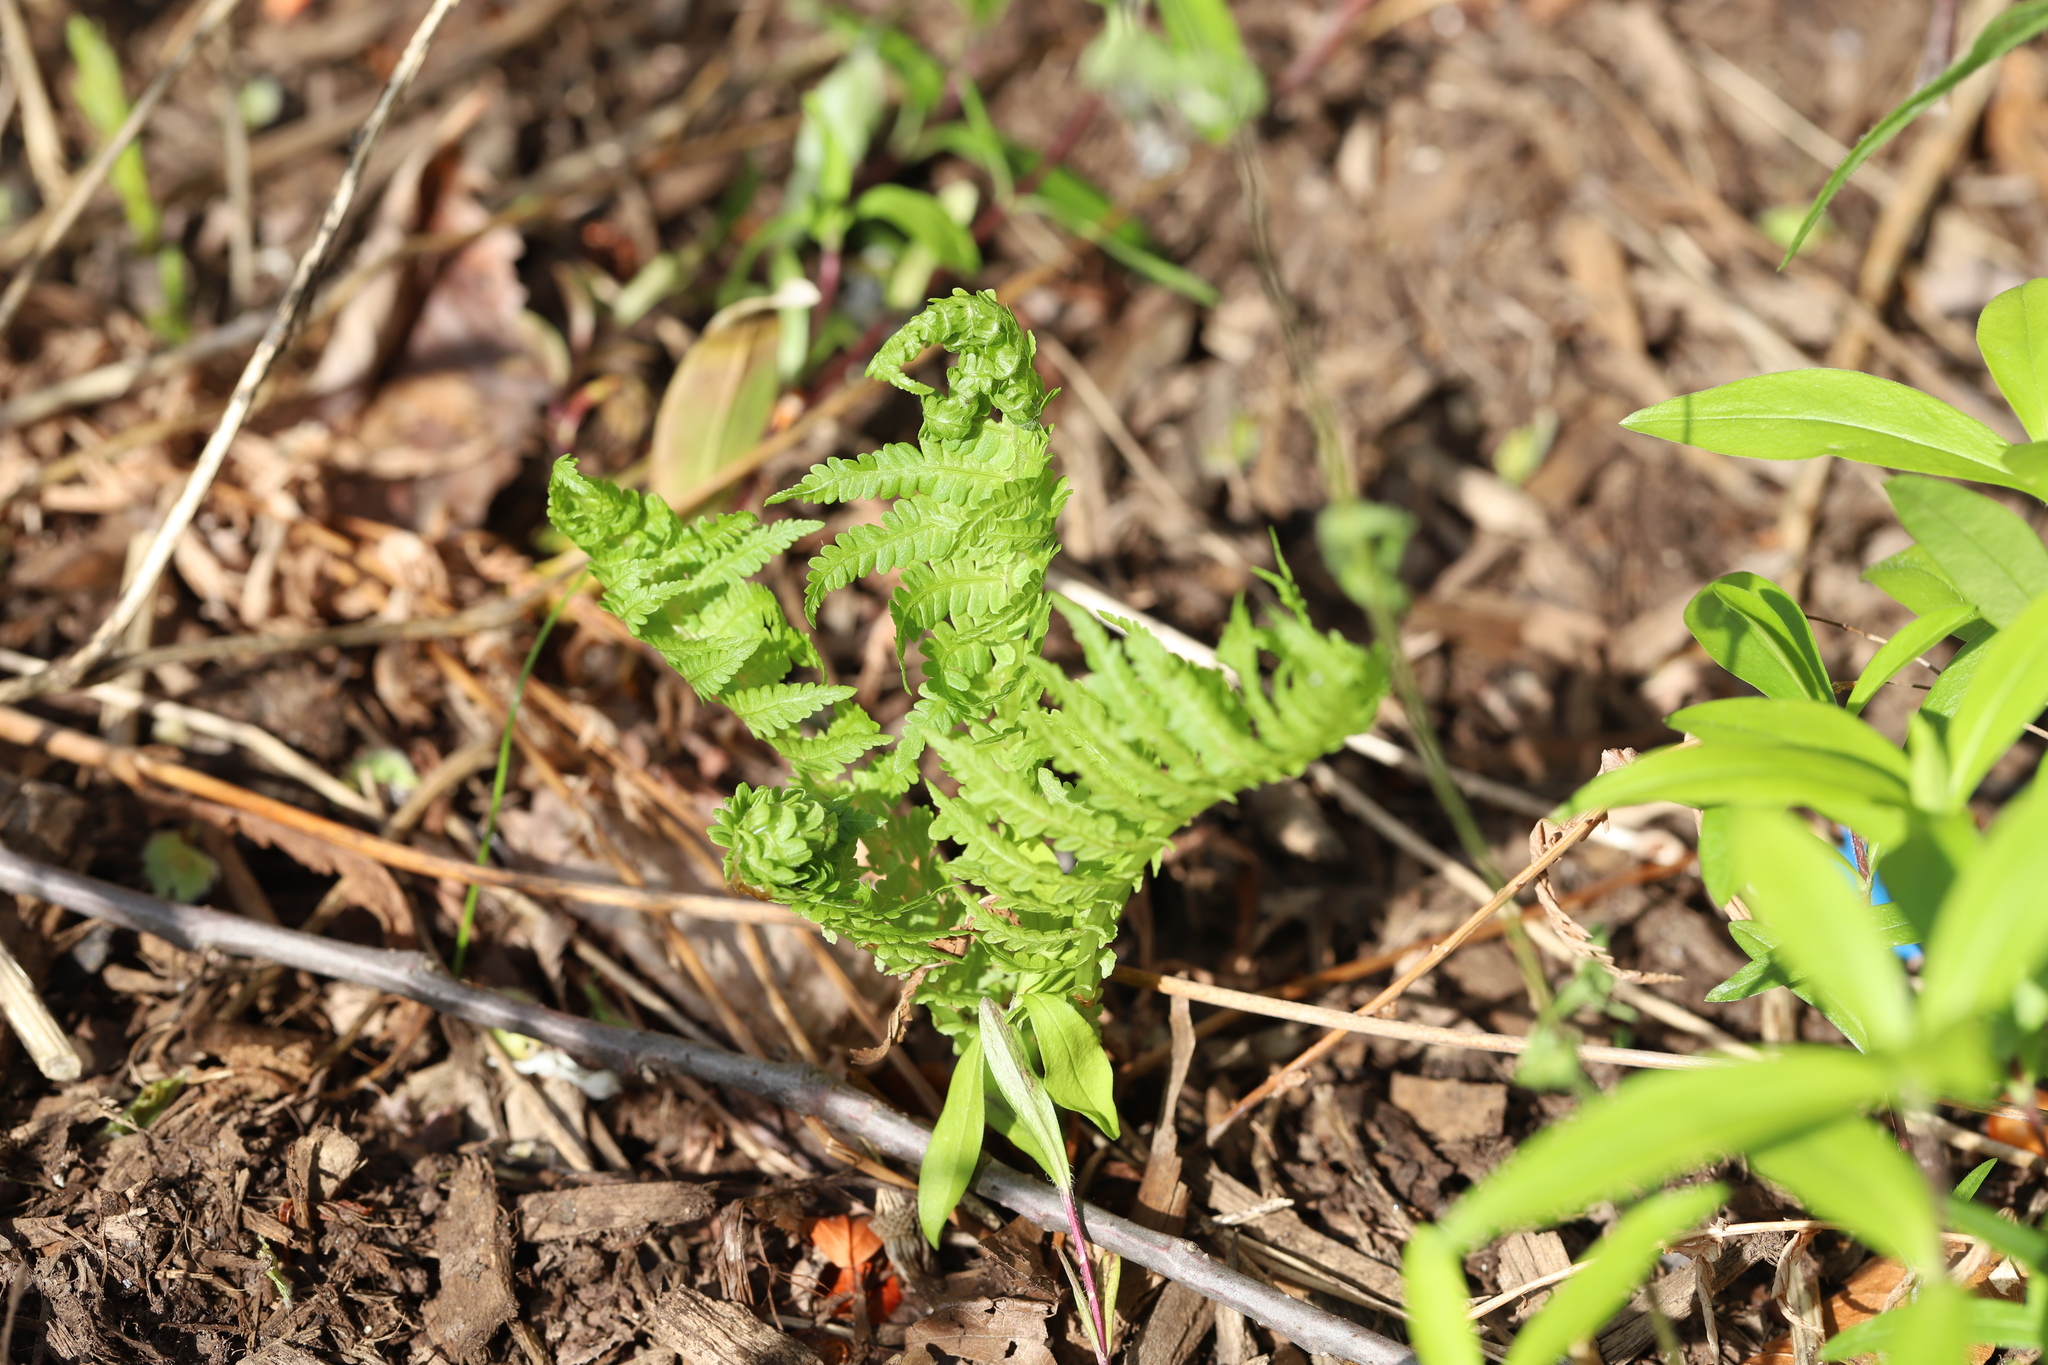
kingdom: Plantae
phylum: Tracheophyta
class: Polypodiopsida
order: Polypodiales
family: Onocleaceae
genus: Matteuccia
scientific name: Matteuccia struthiopteris
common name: Ostrich fern
